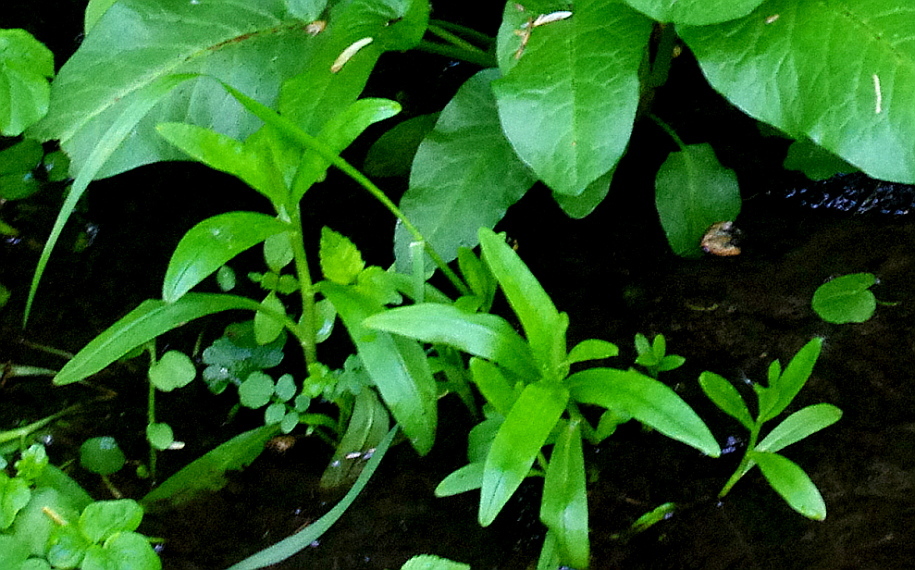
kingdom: Plantae
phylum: Tracheophyta
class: Magnoliopsida
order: Boraginales
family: Boraginaceae
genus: Myosotis
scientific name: Myosotis scorpioides
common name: Water forget-me-not
